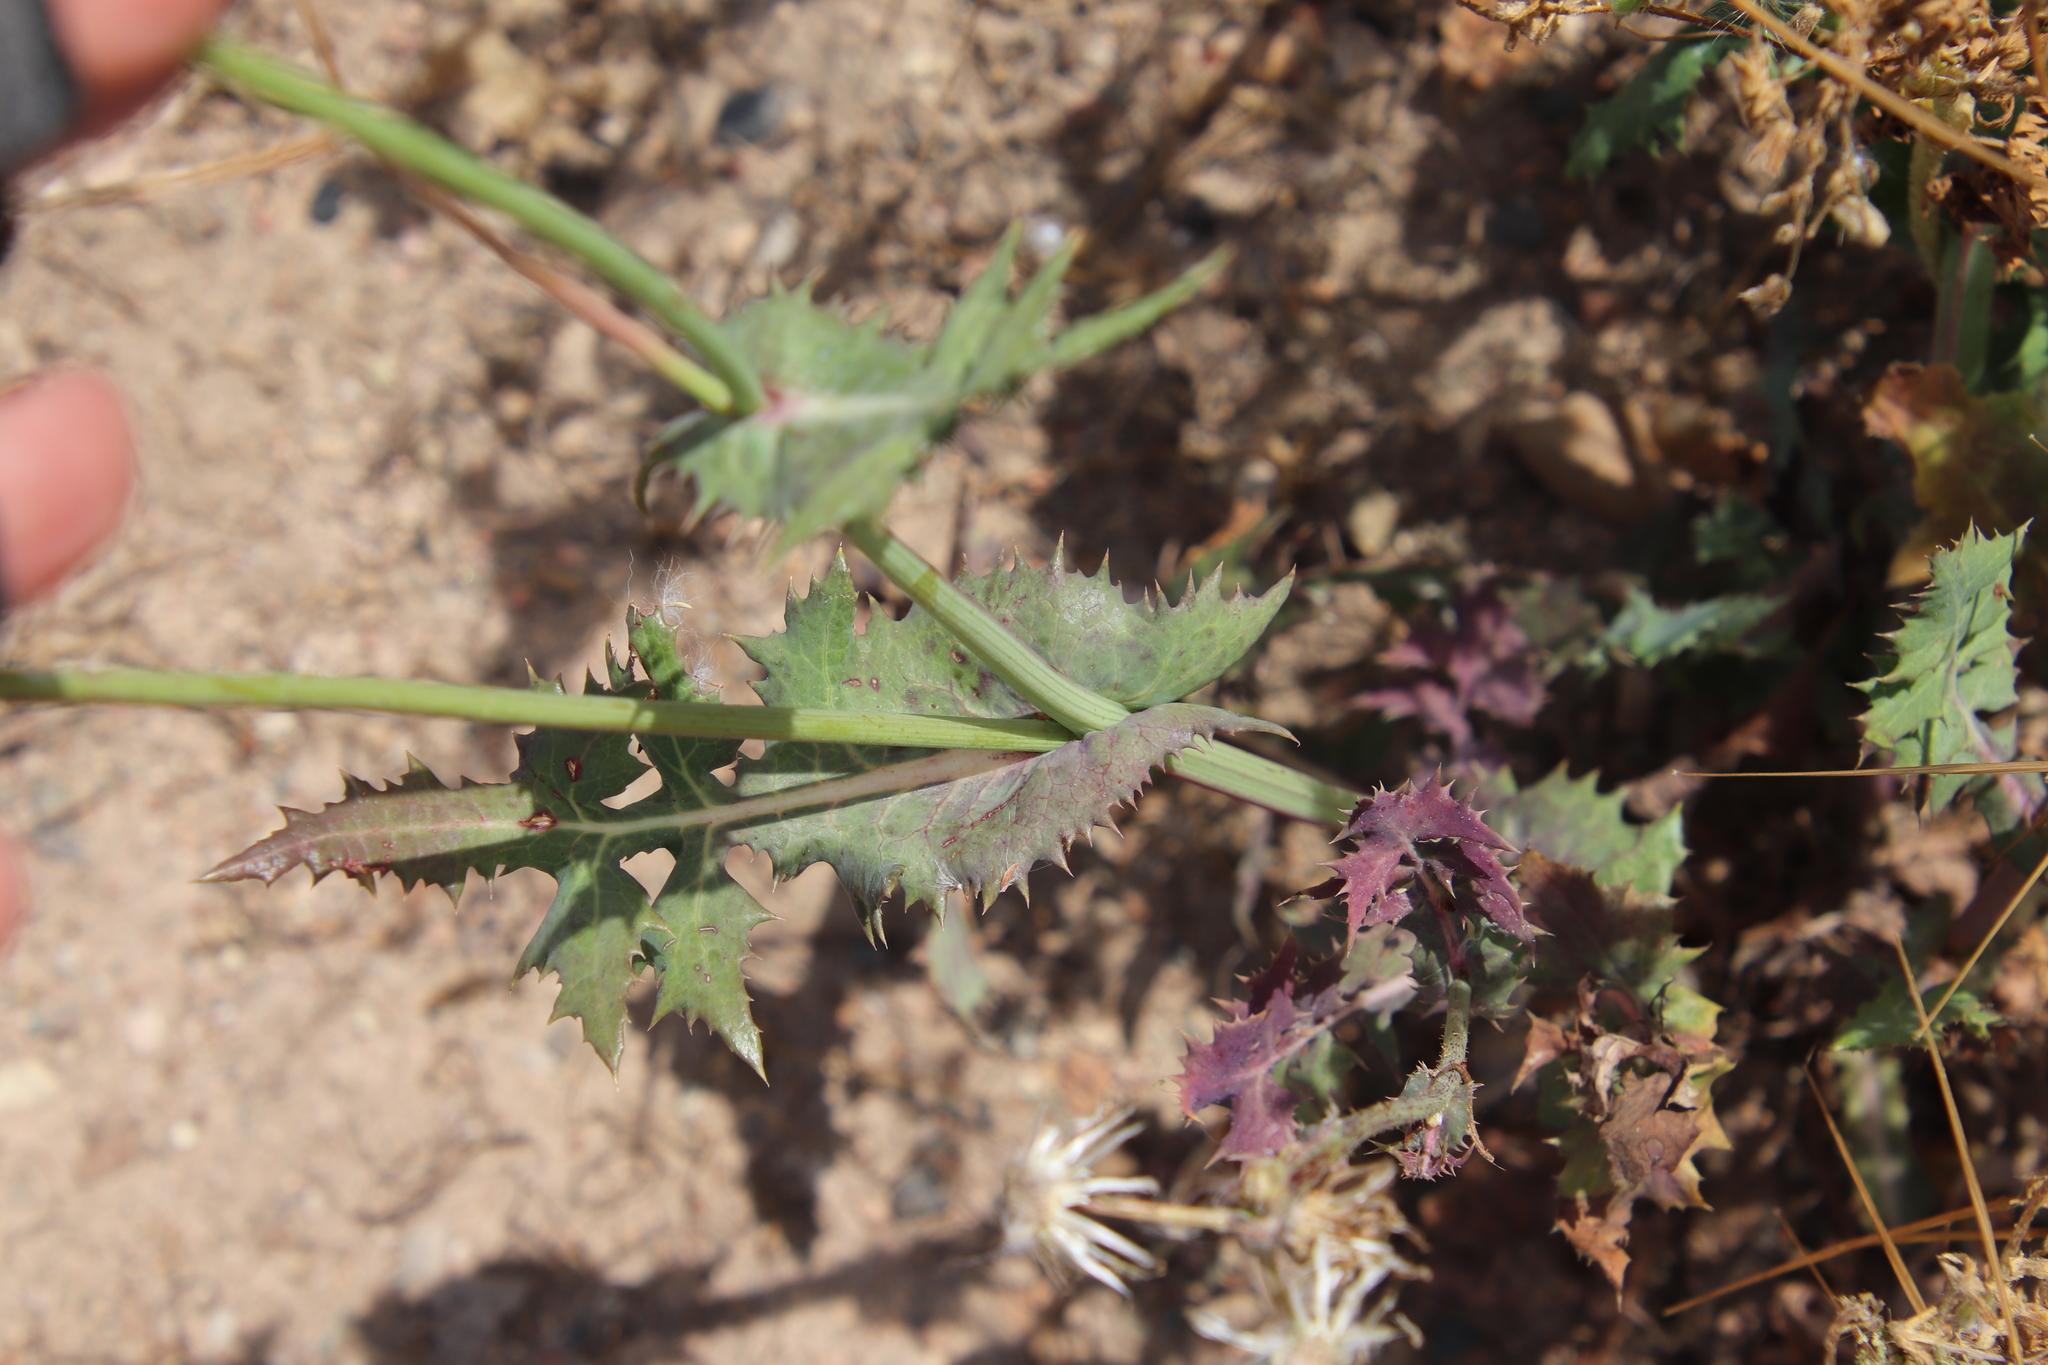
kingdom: Plantae
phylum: Tracheophyta
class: Magnoliopsida
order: Asterales
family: Asteraceae
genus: Sonchus
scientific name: Sonchus oleraceus
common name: Common sowthistle
